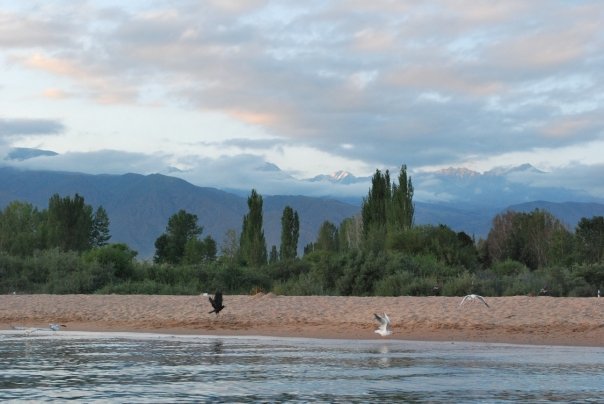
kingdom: Animalia
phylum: Chordata
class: Aves
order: Passeriformes
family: Corvidae
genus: Corvus
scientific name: Corvus frugilegus
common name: Rook
